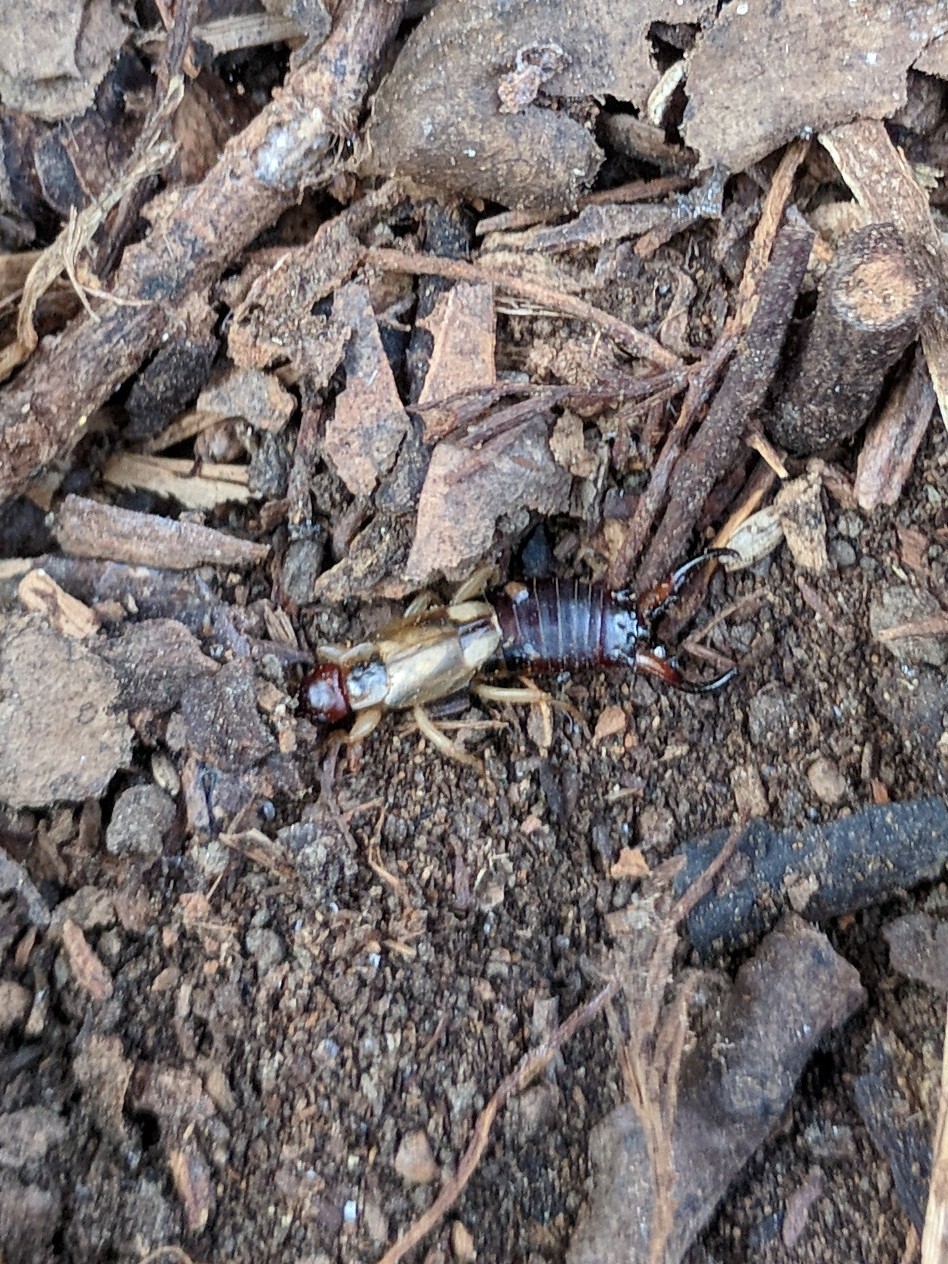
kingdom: Animalia
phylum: Arthropoda
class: Insecta
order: Dermaptera
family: Forficulidae
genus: Forficula
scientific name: Forficula
